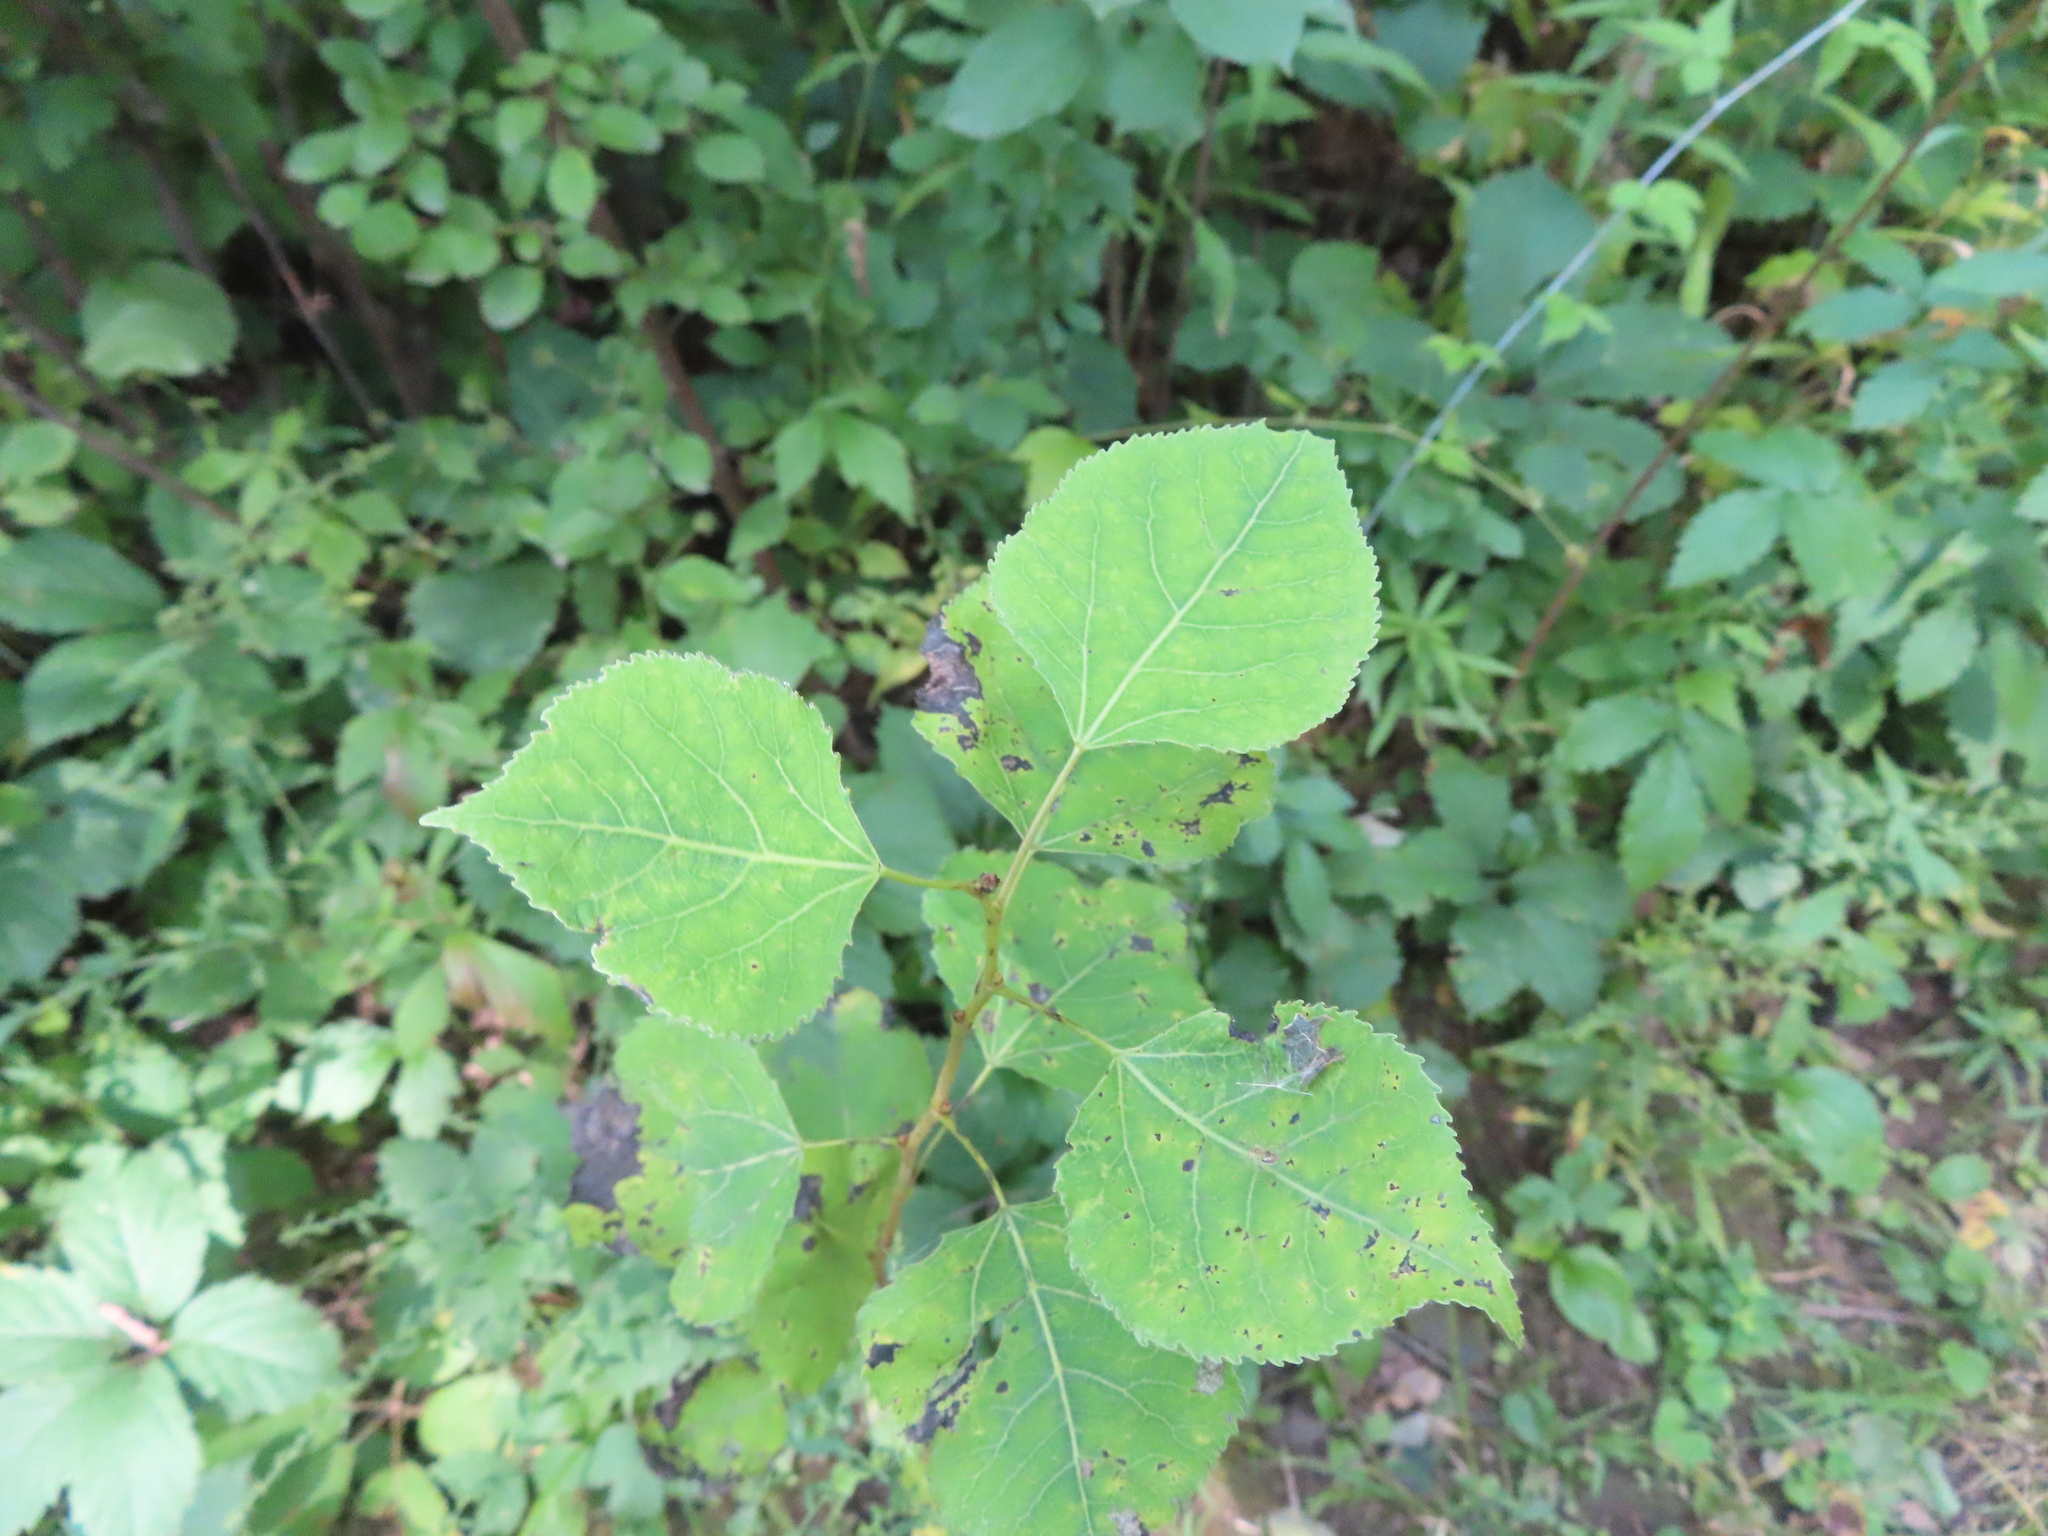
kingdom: Plantae
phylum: Tracheophyta
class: Magnoliopsida
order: Malpighiales
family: Salicaceae
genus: Populus
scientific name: Populus tremuloides
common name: Quaking aspen
